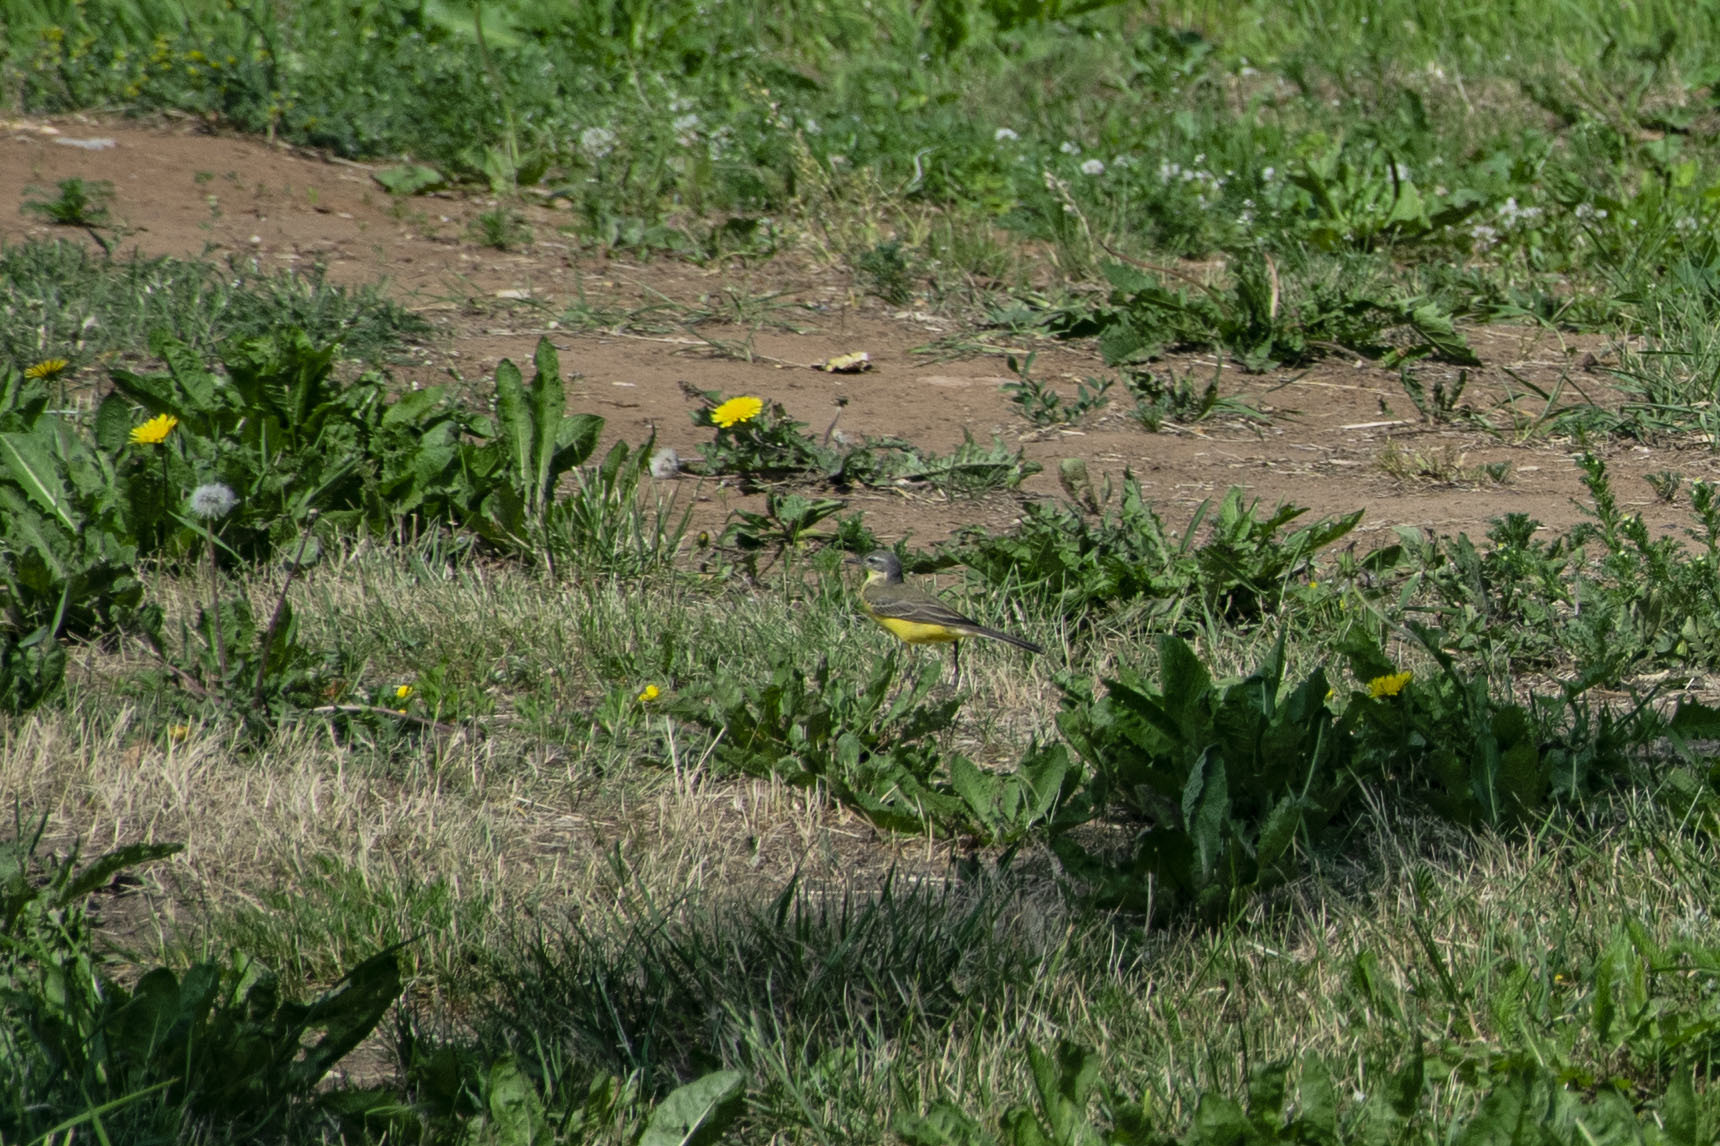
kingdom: Animalia
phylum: Chordata
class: Aves
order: Passeriformes
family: Motacillidae
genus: Motacilla
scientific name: Motacilla flava
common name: Western yellow wagtail
